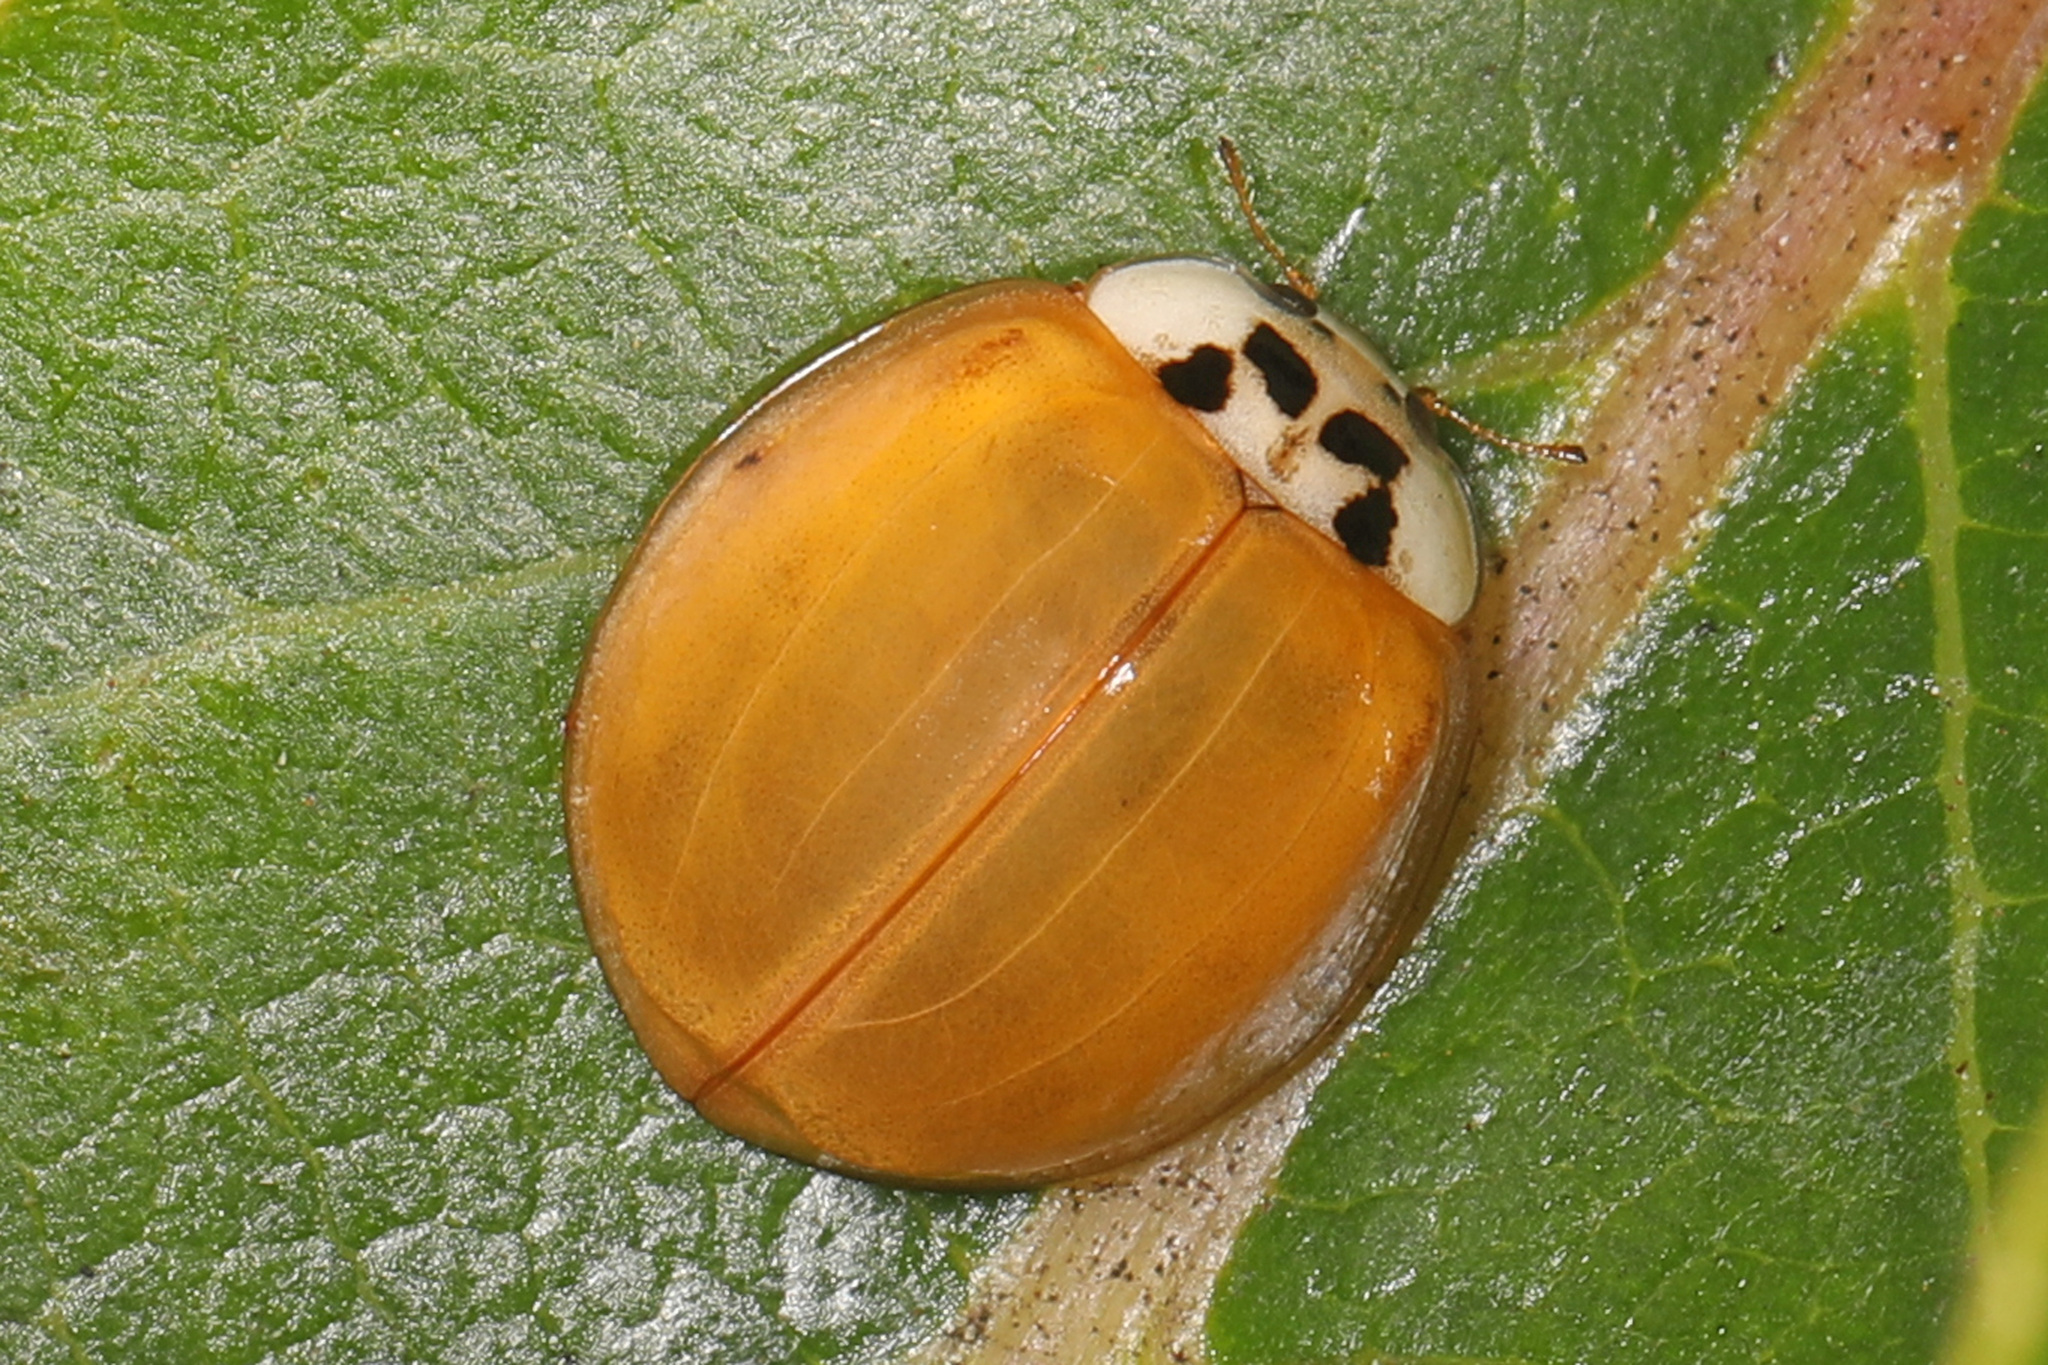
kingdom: Animalia
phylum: Arthropoda
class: Insecta
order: Coleoptera
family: Coccinellidae
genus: Harmonia
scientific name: Harmonia axyridis
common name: Harlequin ladybird
